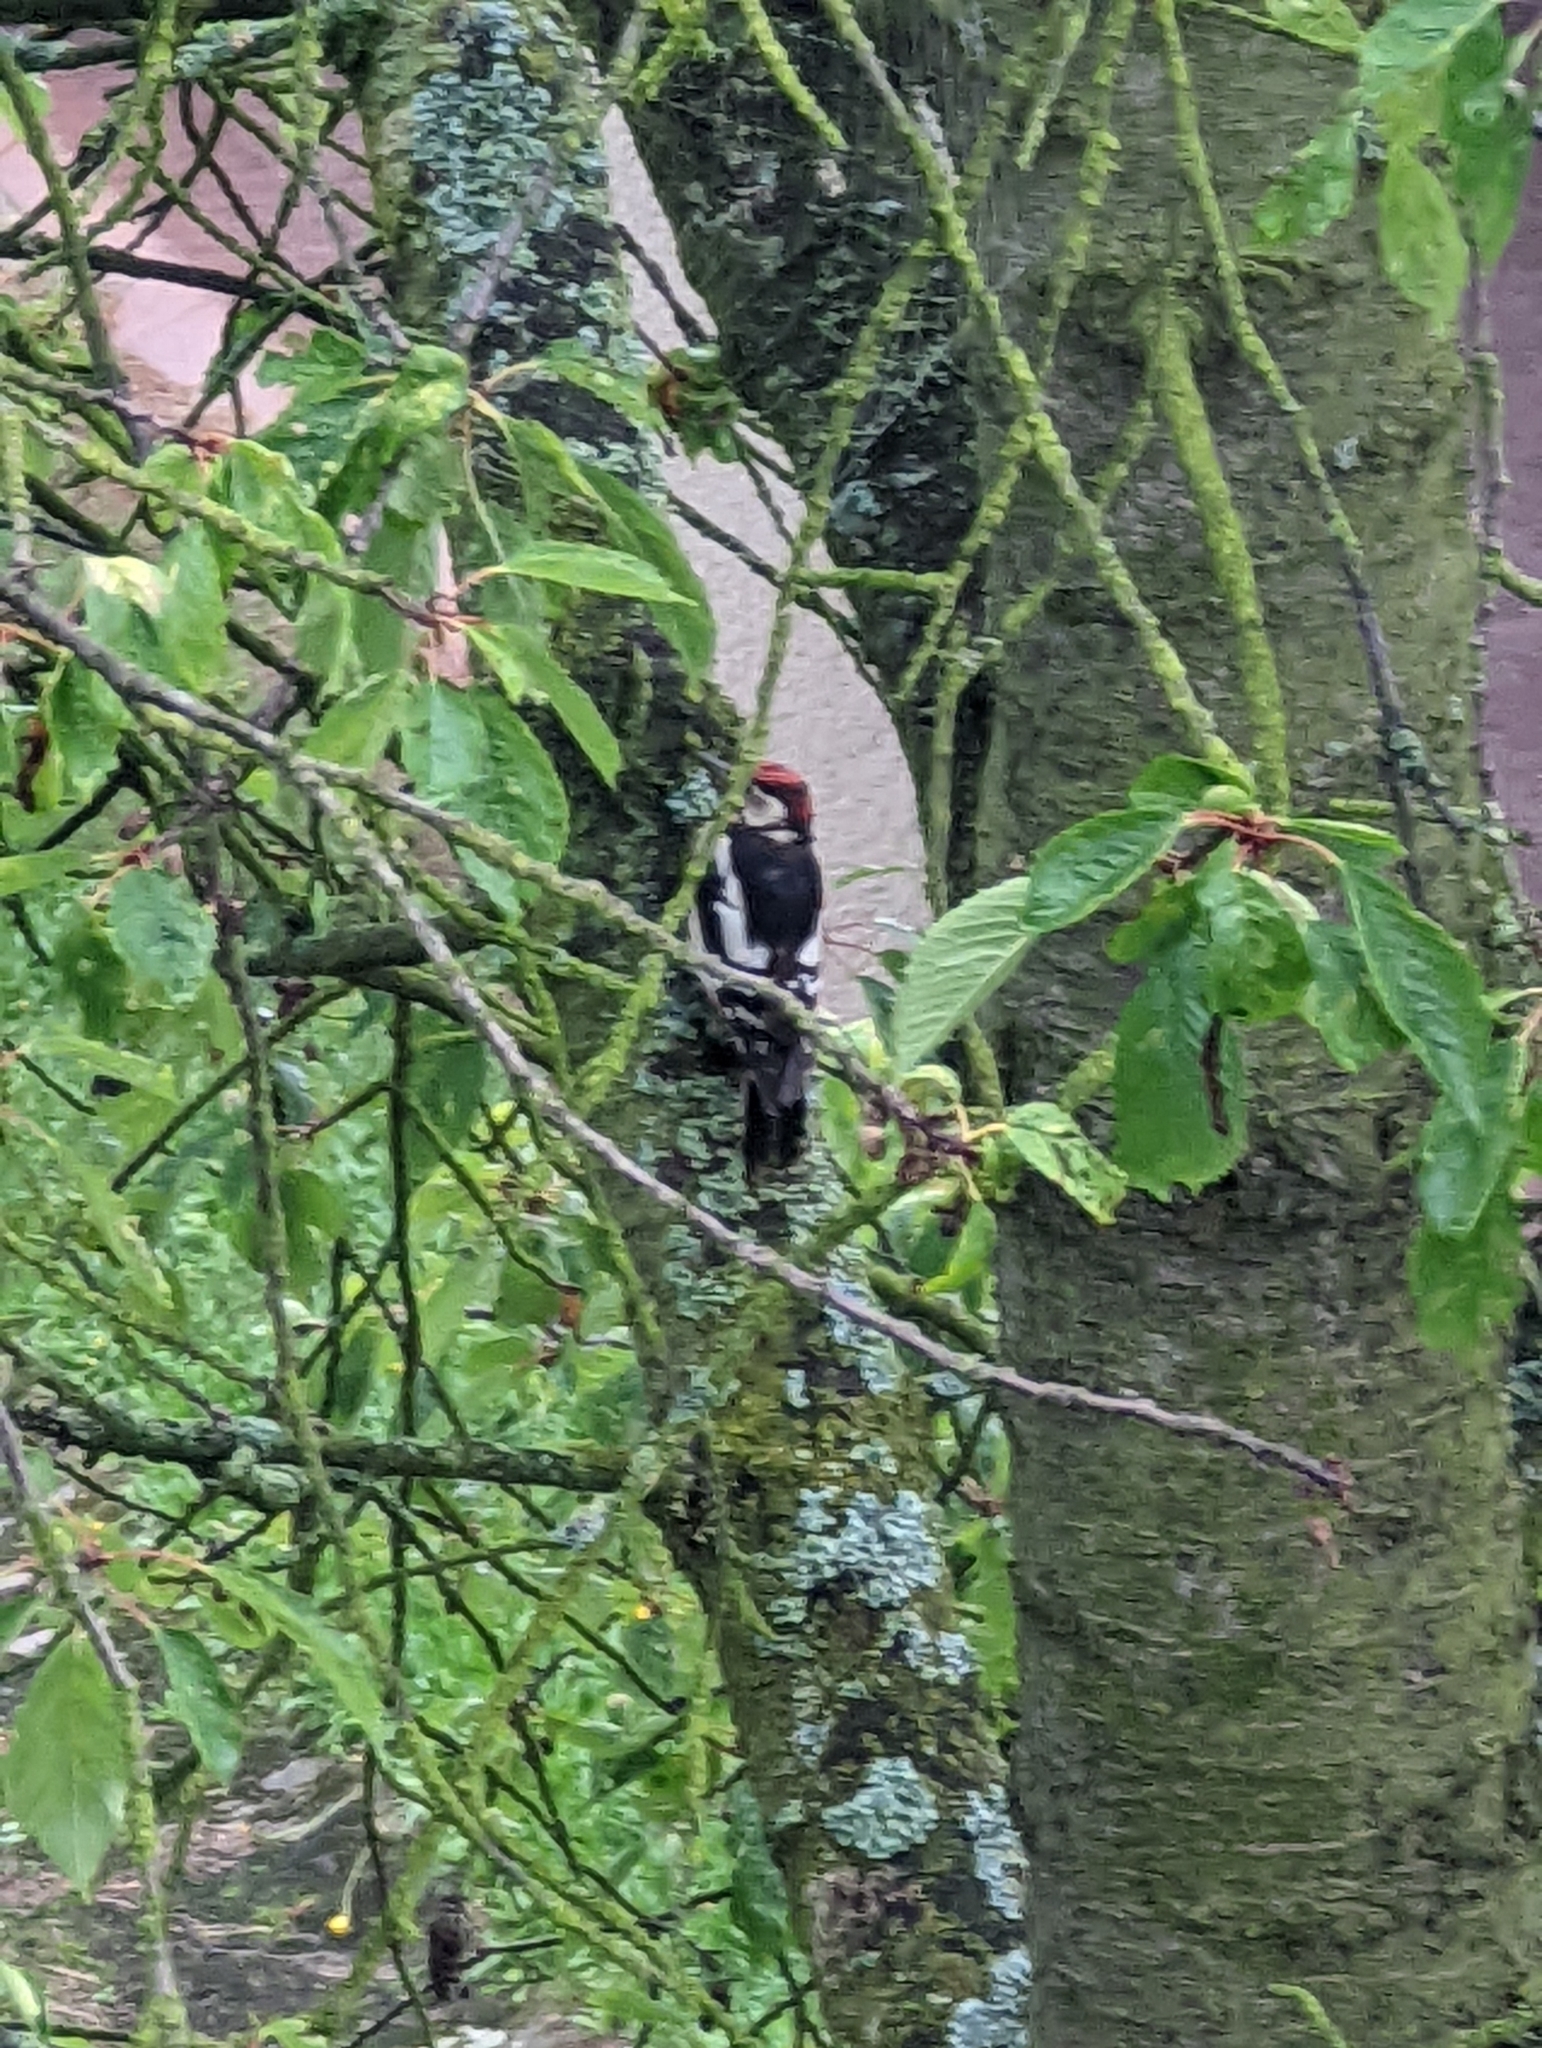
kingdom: Animalia
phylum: Chordata
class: Aves
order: Piciformes
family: Picidae
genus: Dendrocopos
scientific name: Dendrocopos major
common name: Great spotted woodpecker
